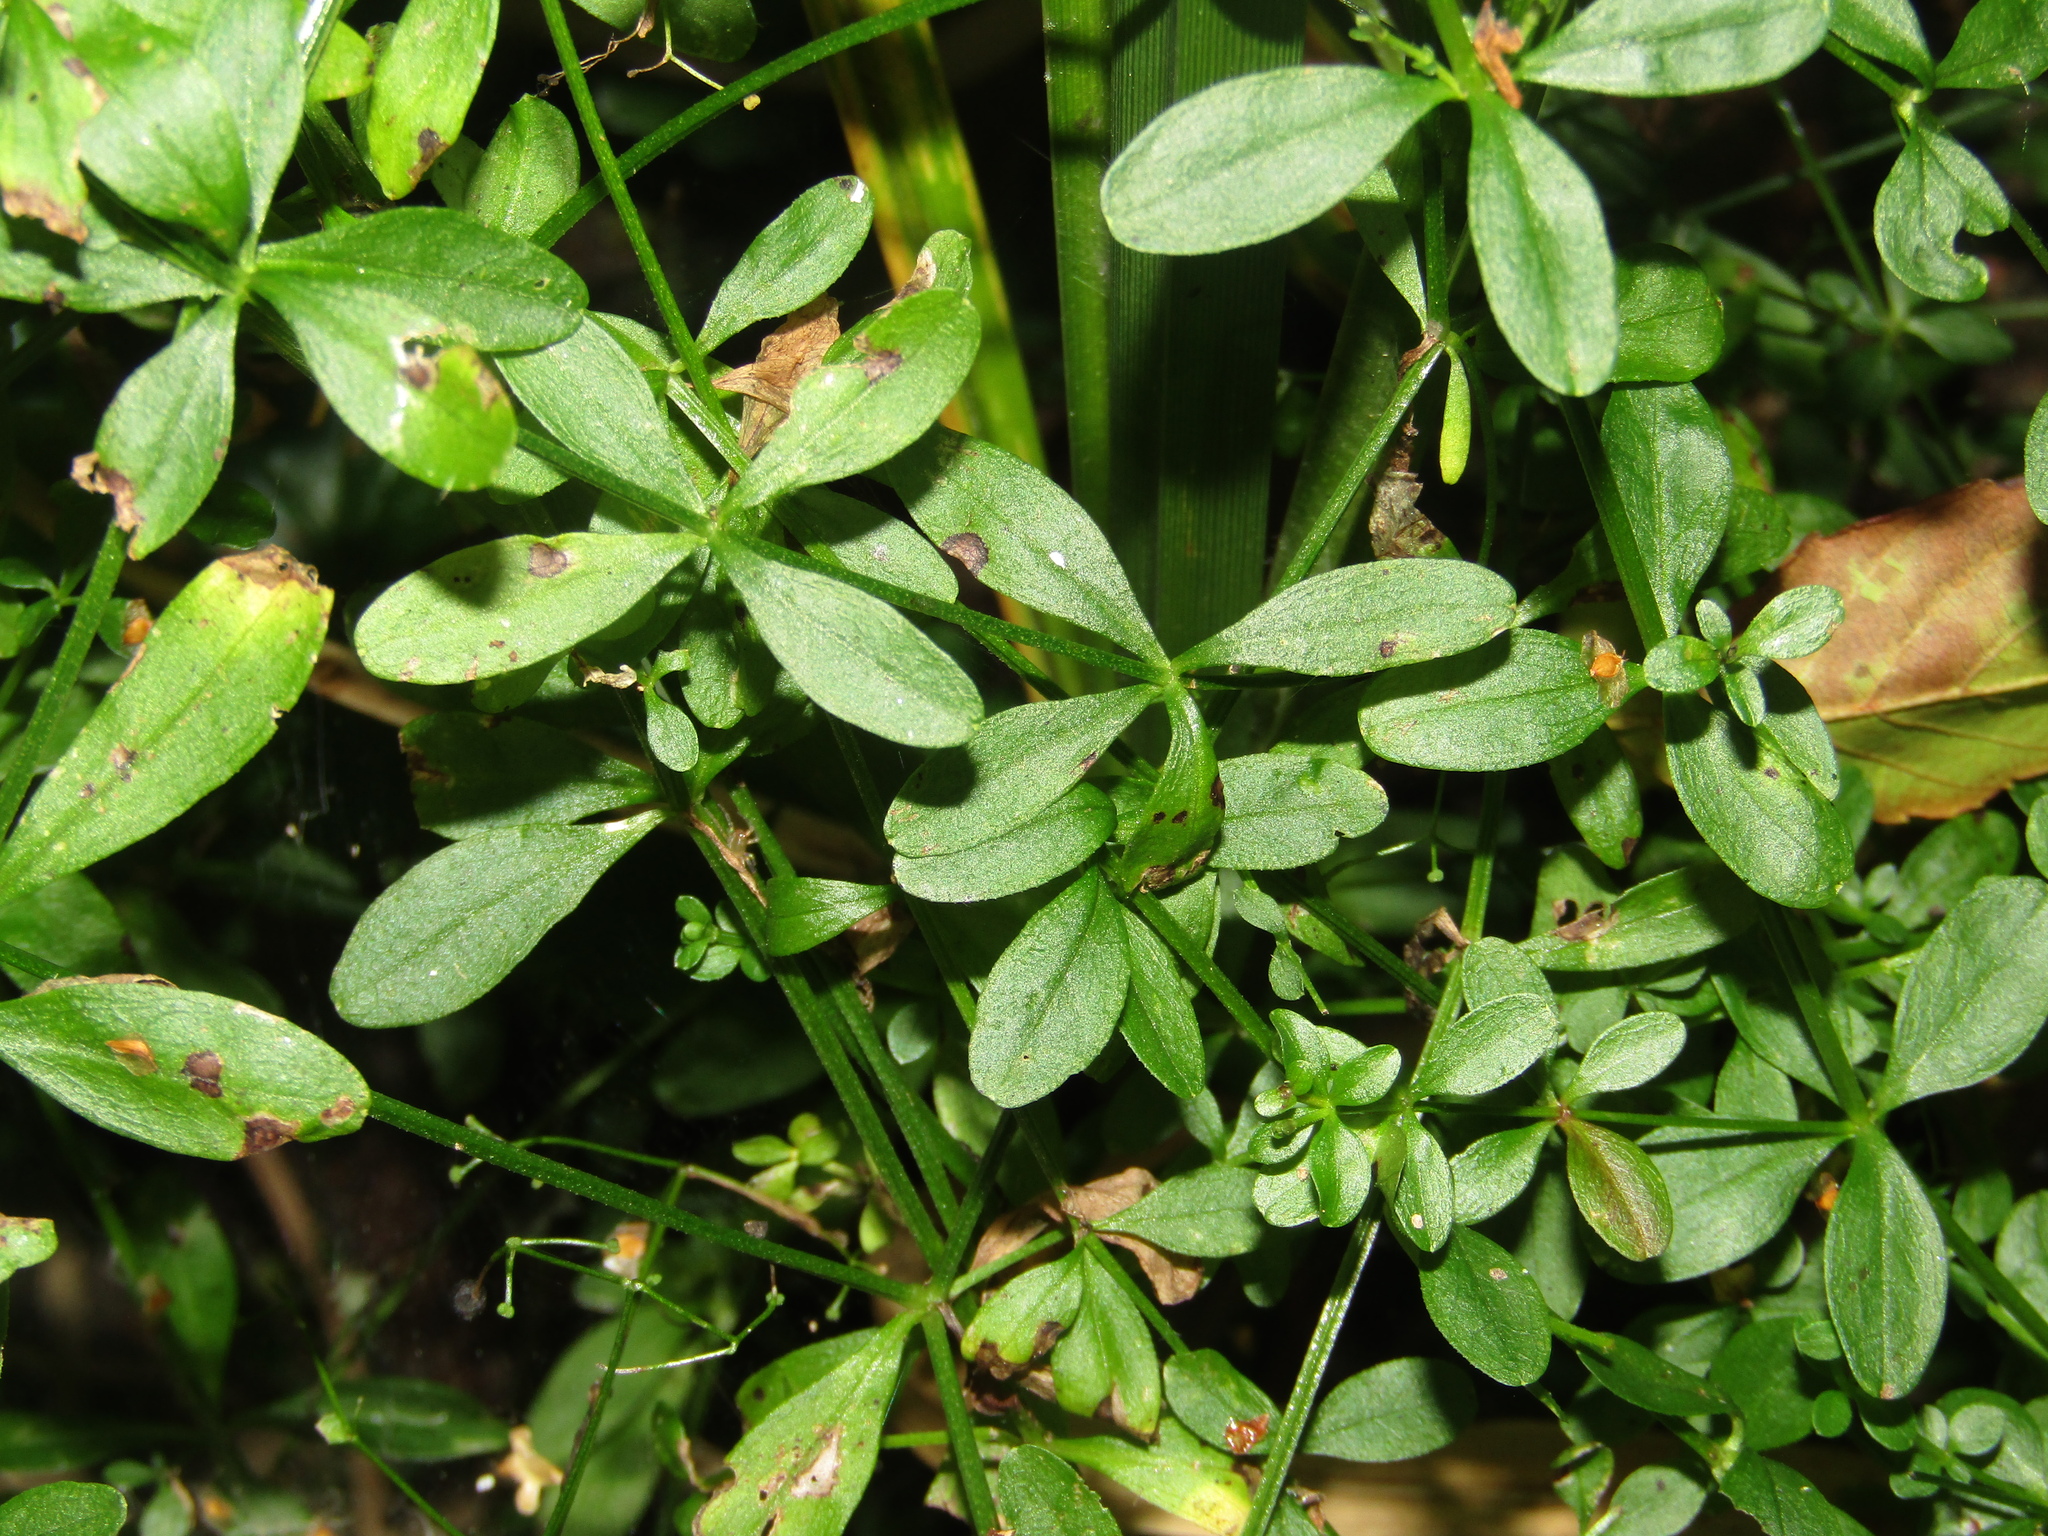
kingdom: Plantae
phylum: Tracheophyta
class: Magnoliopsida
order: Gentianales
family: Rubiaceae
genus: Galium
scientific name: Galium palustre
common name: Common marsh-bedstraw
